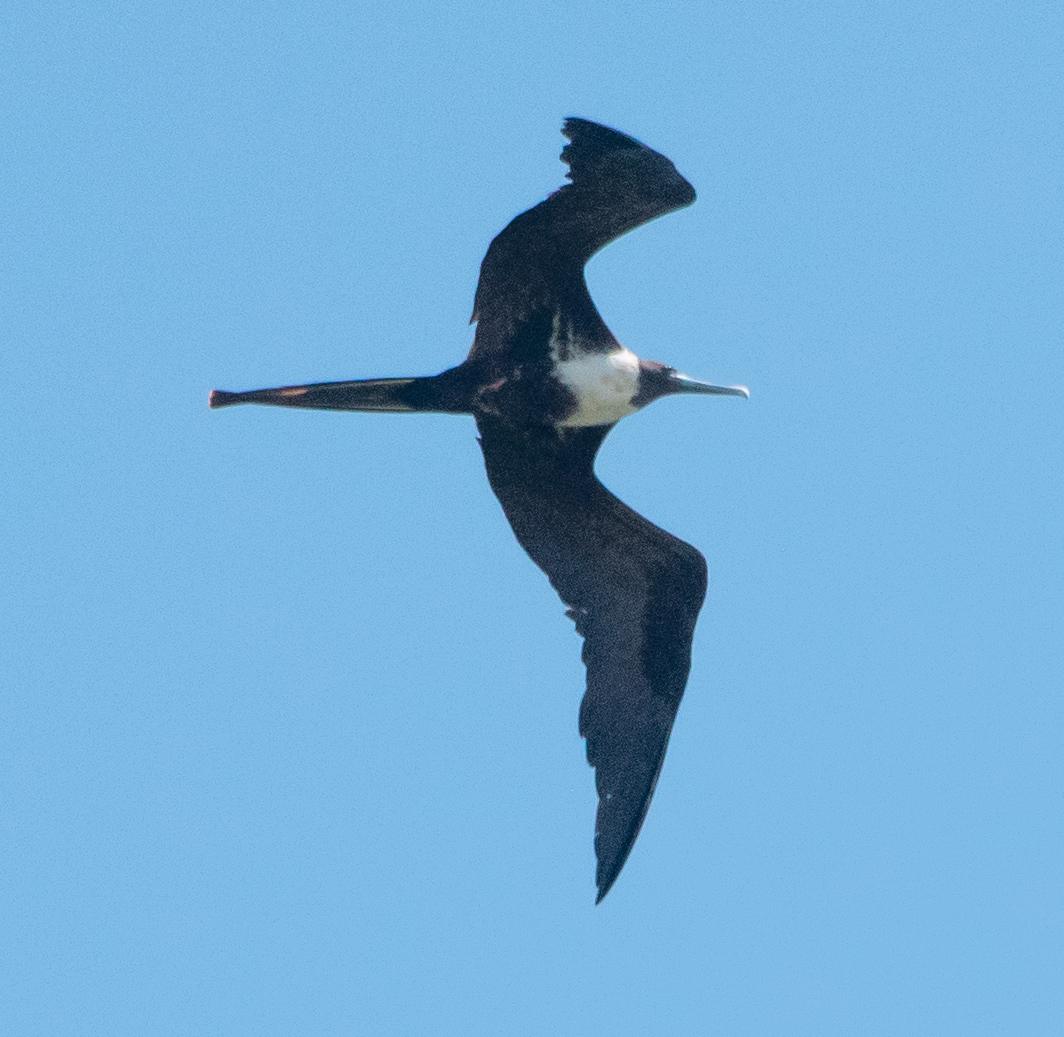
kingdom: Animalia
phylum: Chordata
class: Aves
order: Suliformes
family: Fregatidae
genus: Fregata
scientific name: Fregata magnificens
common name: Magnificent frigatebird
